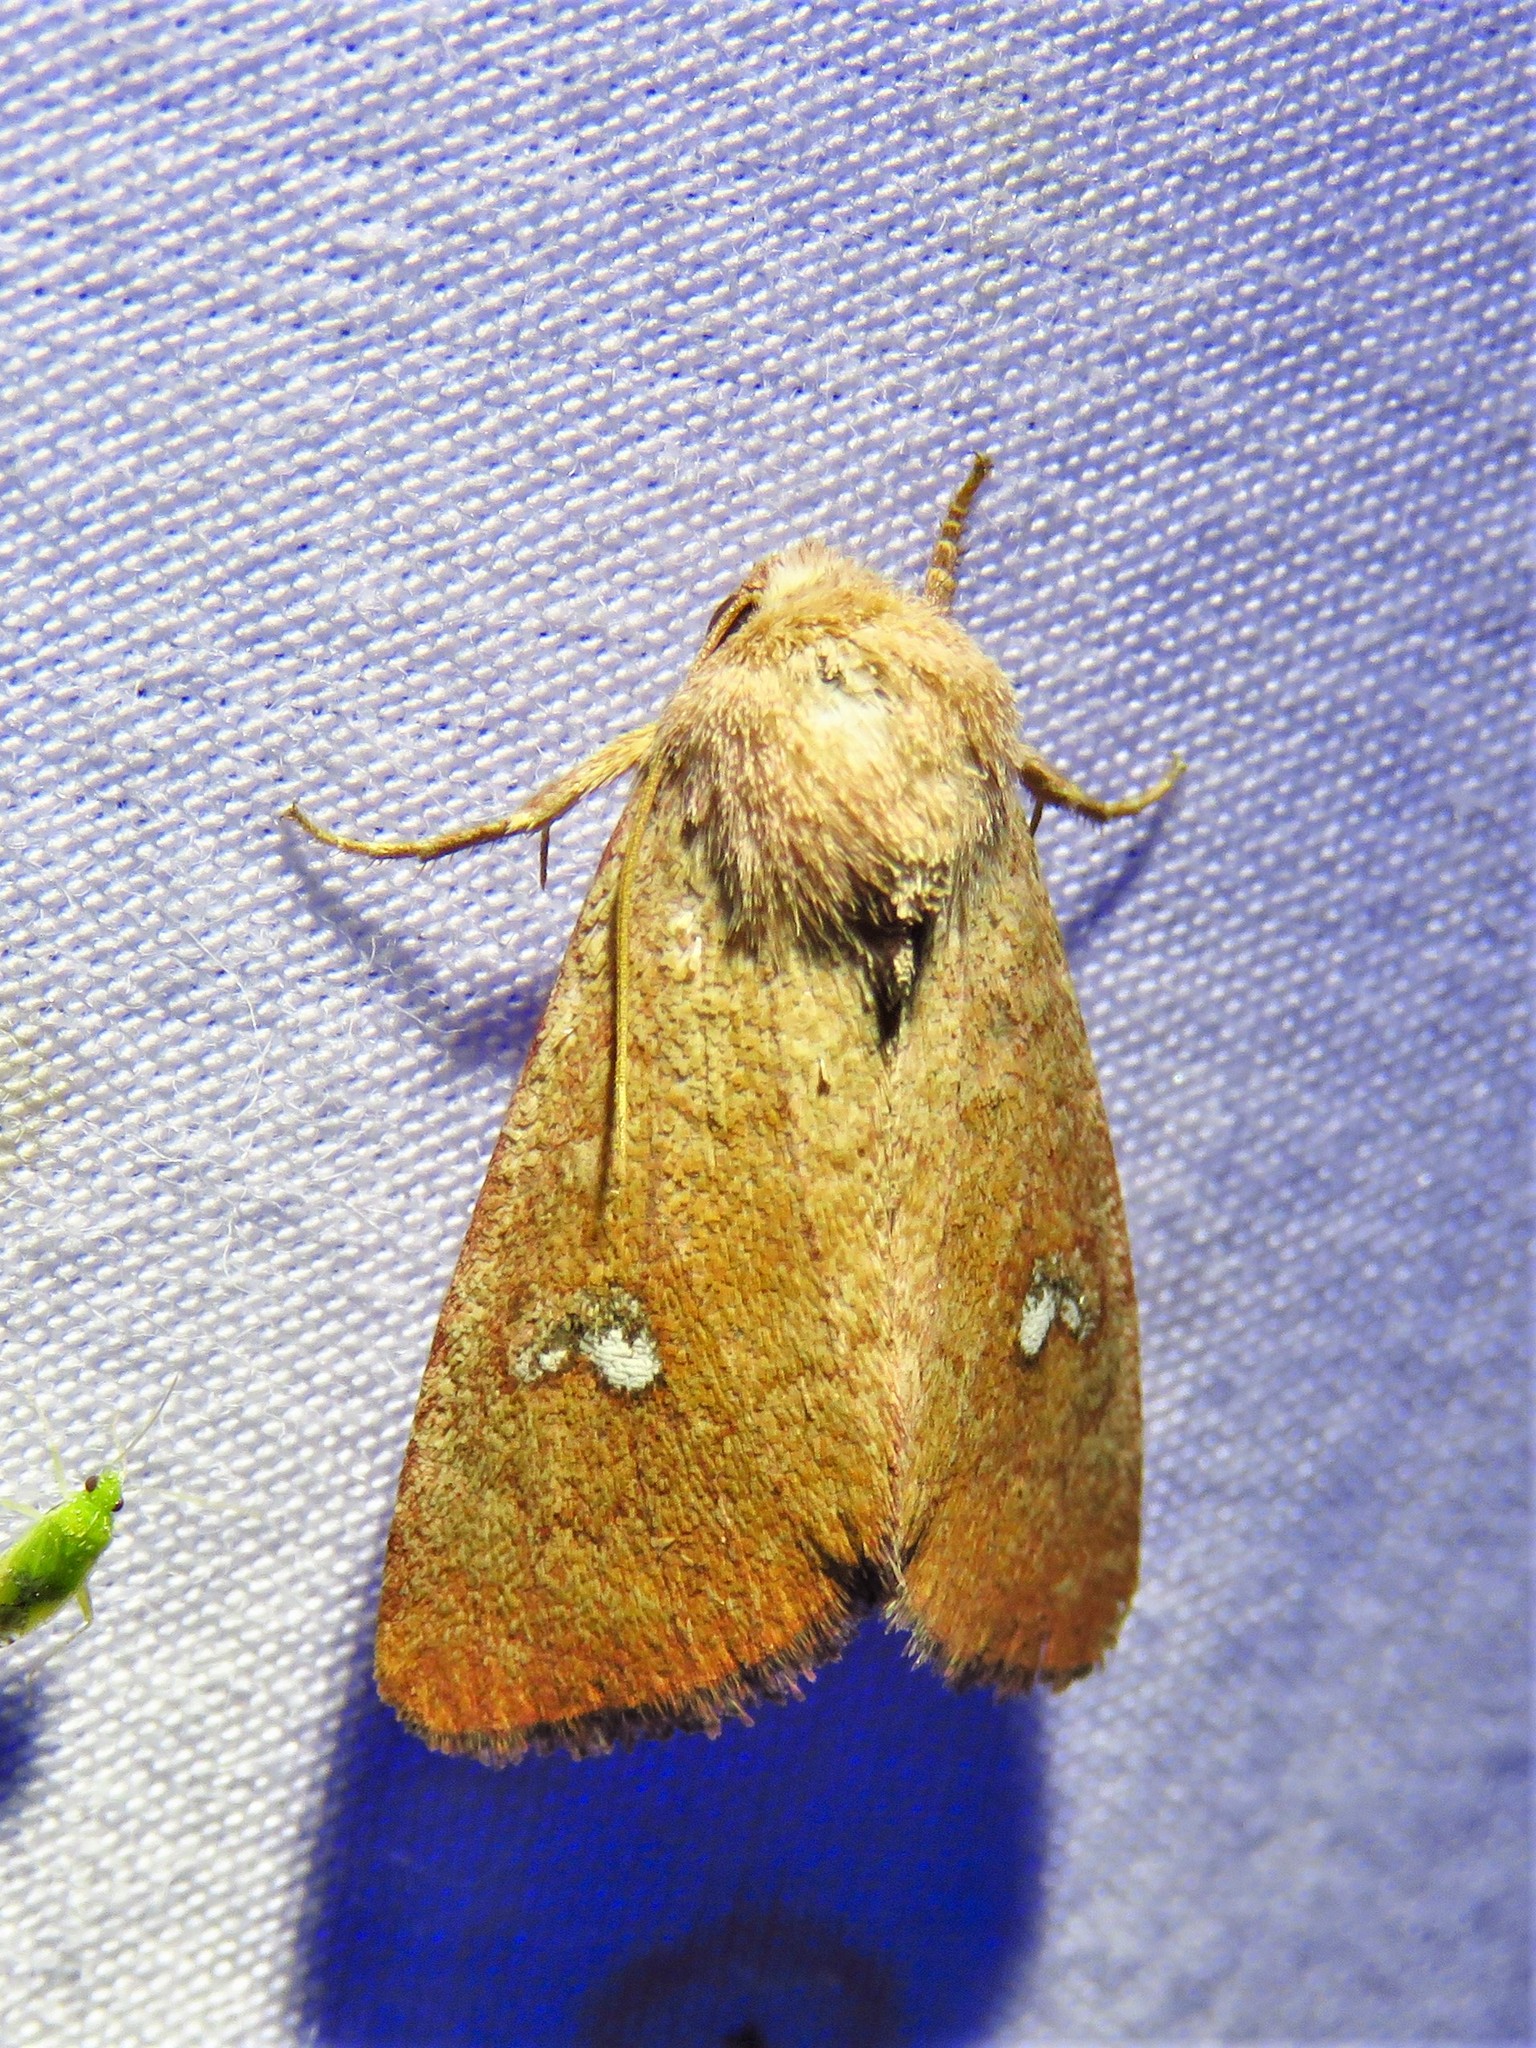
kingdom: Animalia
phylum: Arthropoda
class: Insecta
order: Lepidoptera
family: Noctuidae
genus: Sideridis
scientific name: Sideridis ruisa
